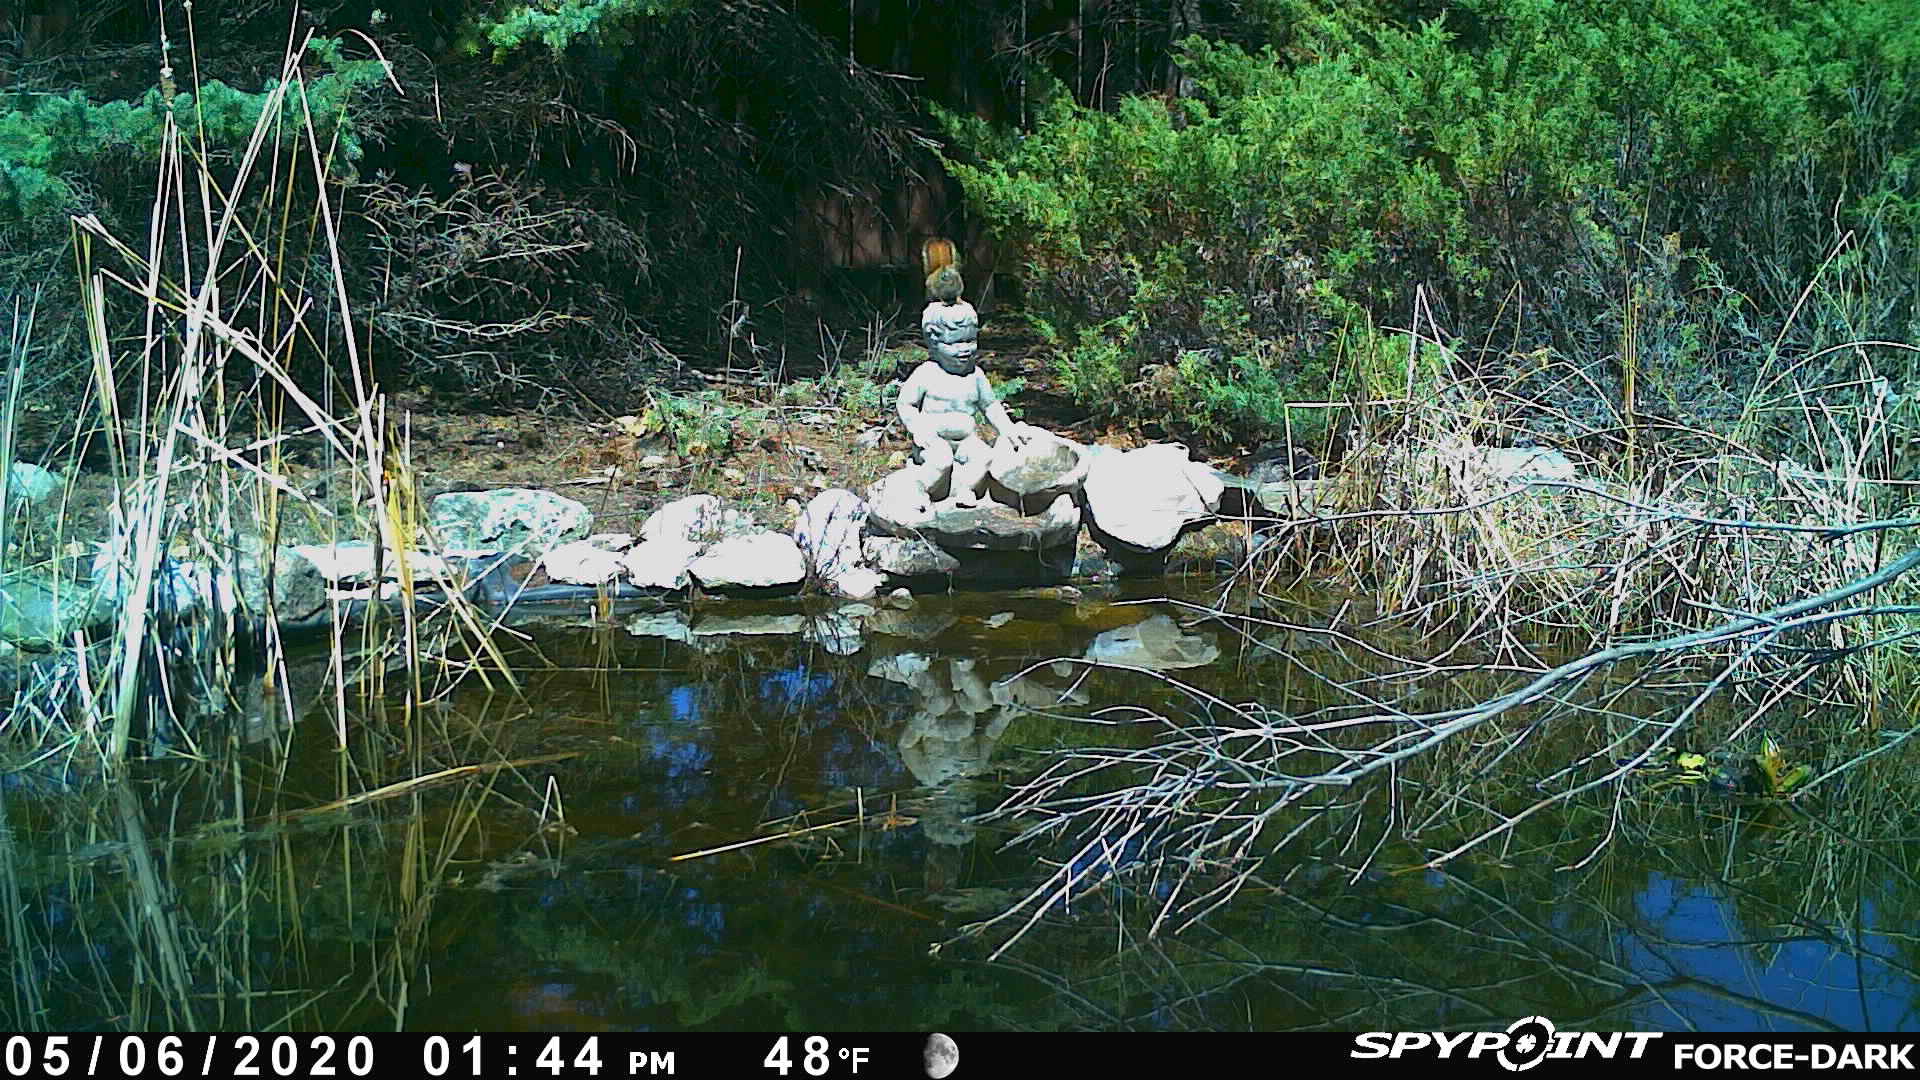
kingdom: Animalia
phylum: Chordata
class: Mammalia
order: Rodentia
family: Sciuridae
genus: Tamiasciurus
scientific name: Tamiasciurus hudsonicus
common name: Red squirrel
